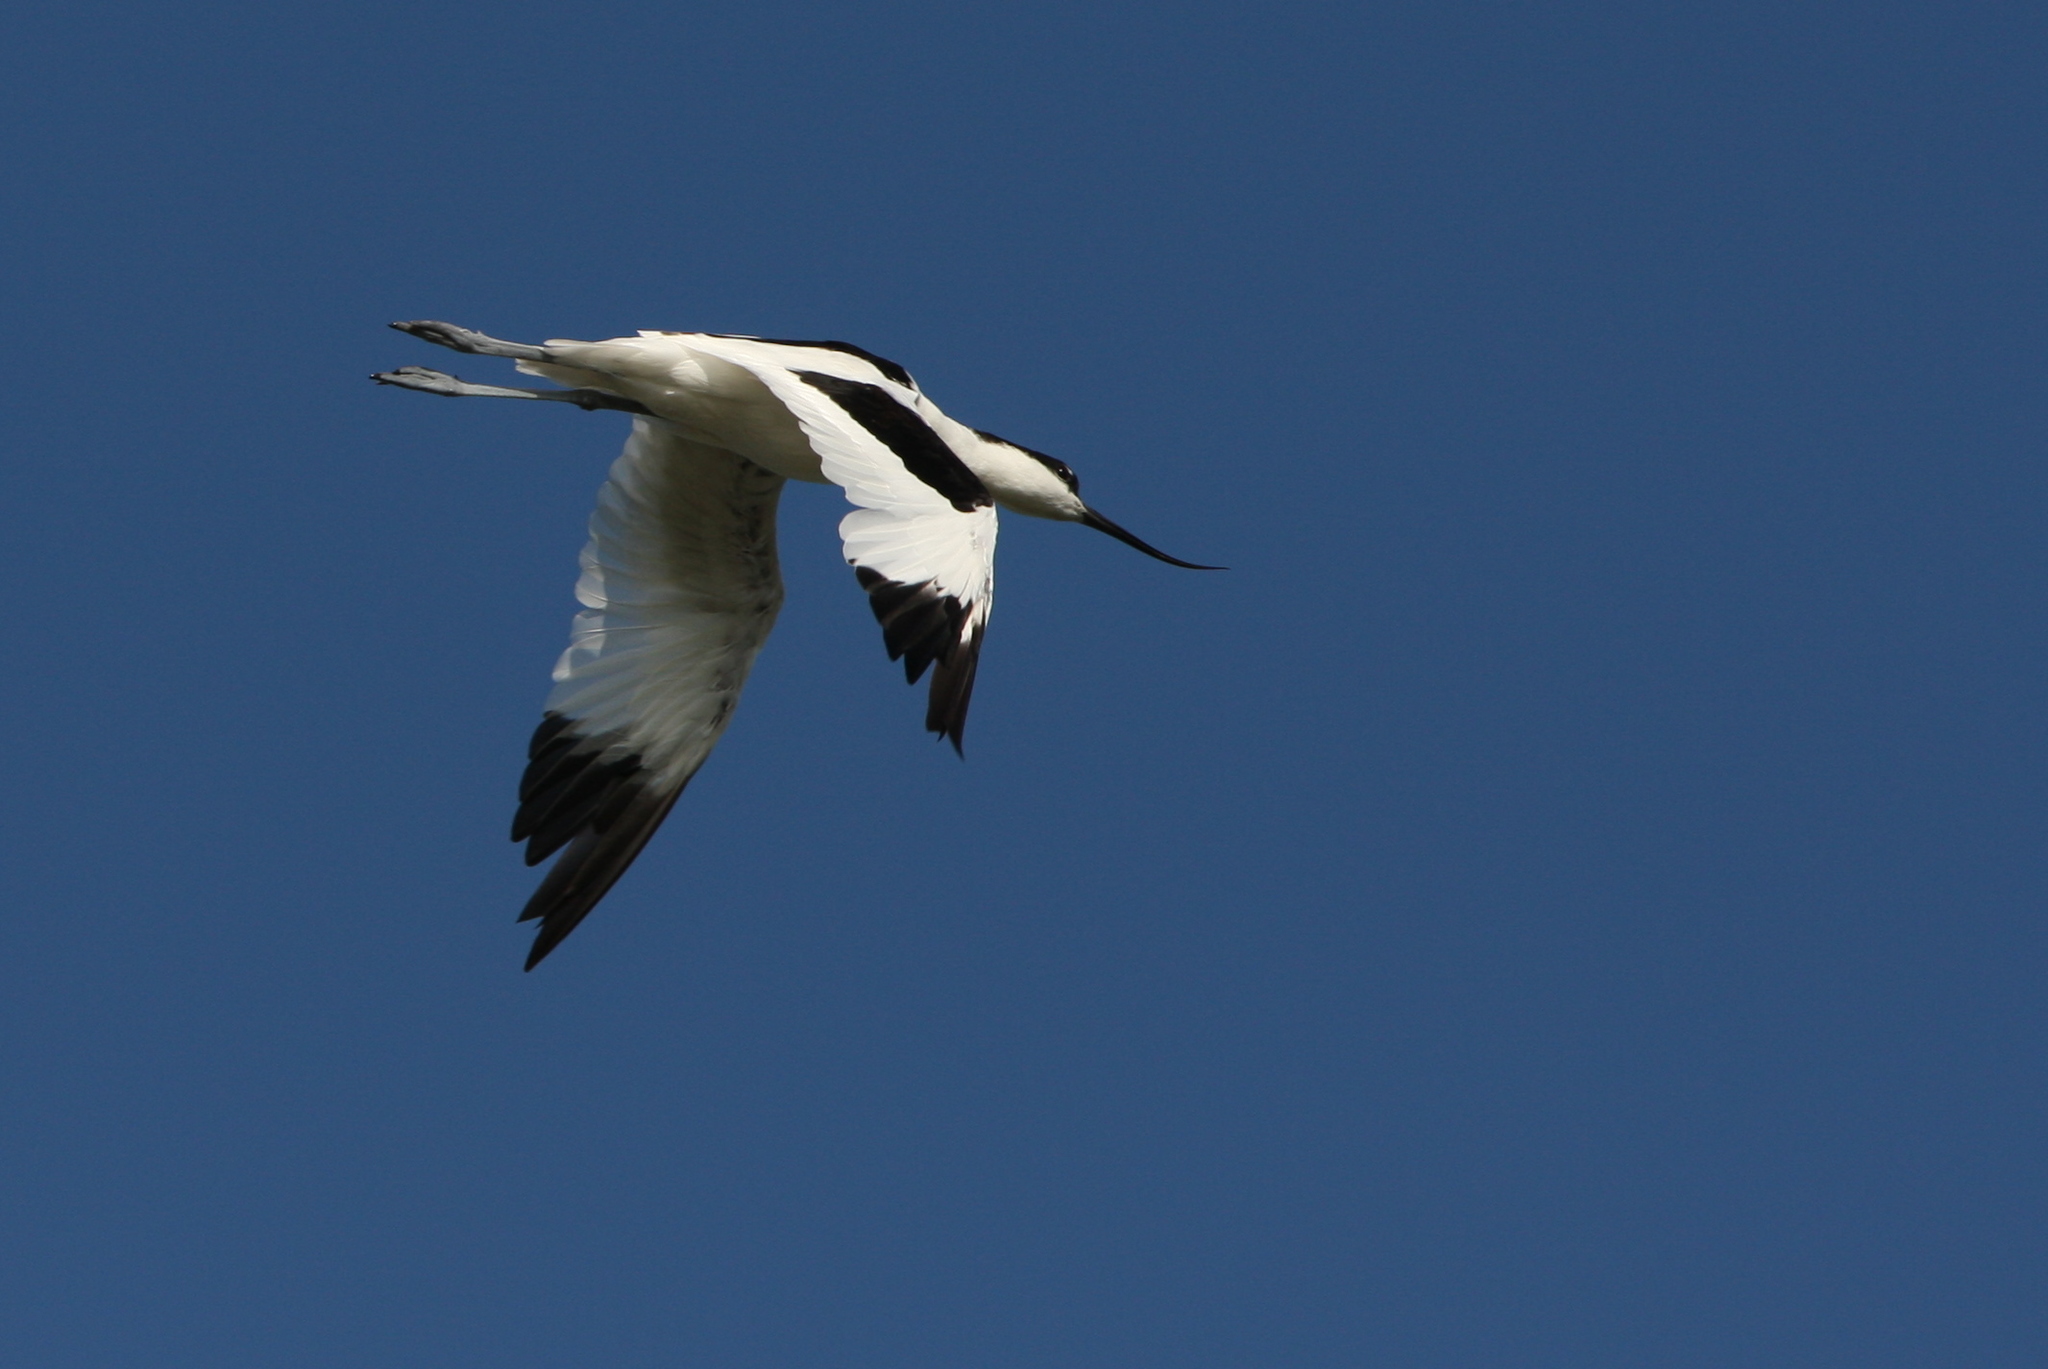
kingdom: Animalia
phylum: Chordata
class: Aves
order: Charadriiformes
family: Recurvirostridae
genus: Recurvirostra
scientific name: Recurvirostra avosetta
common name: Pied avocet
